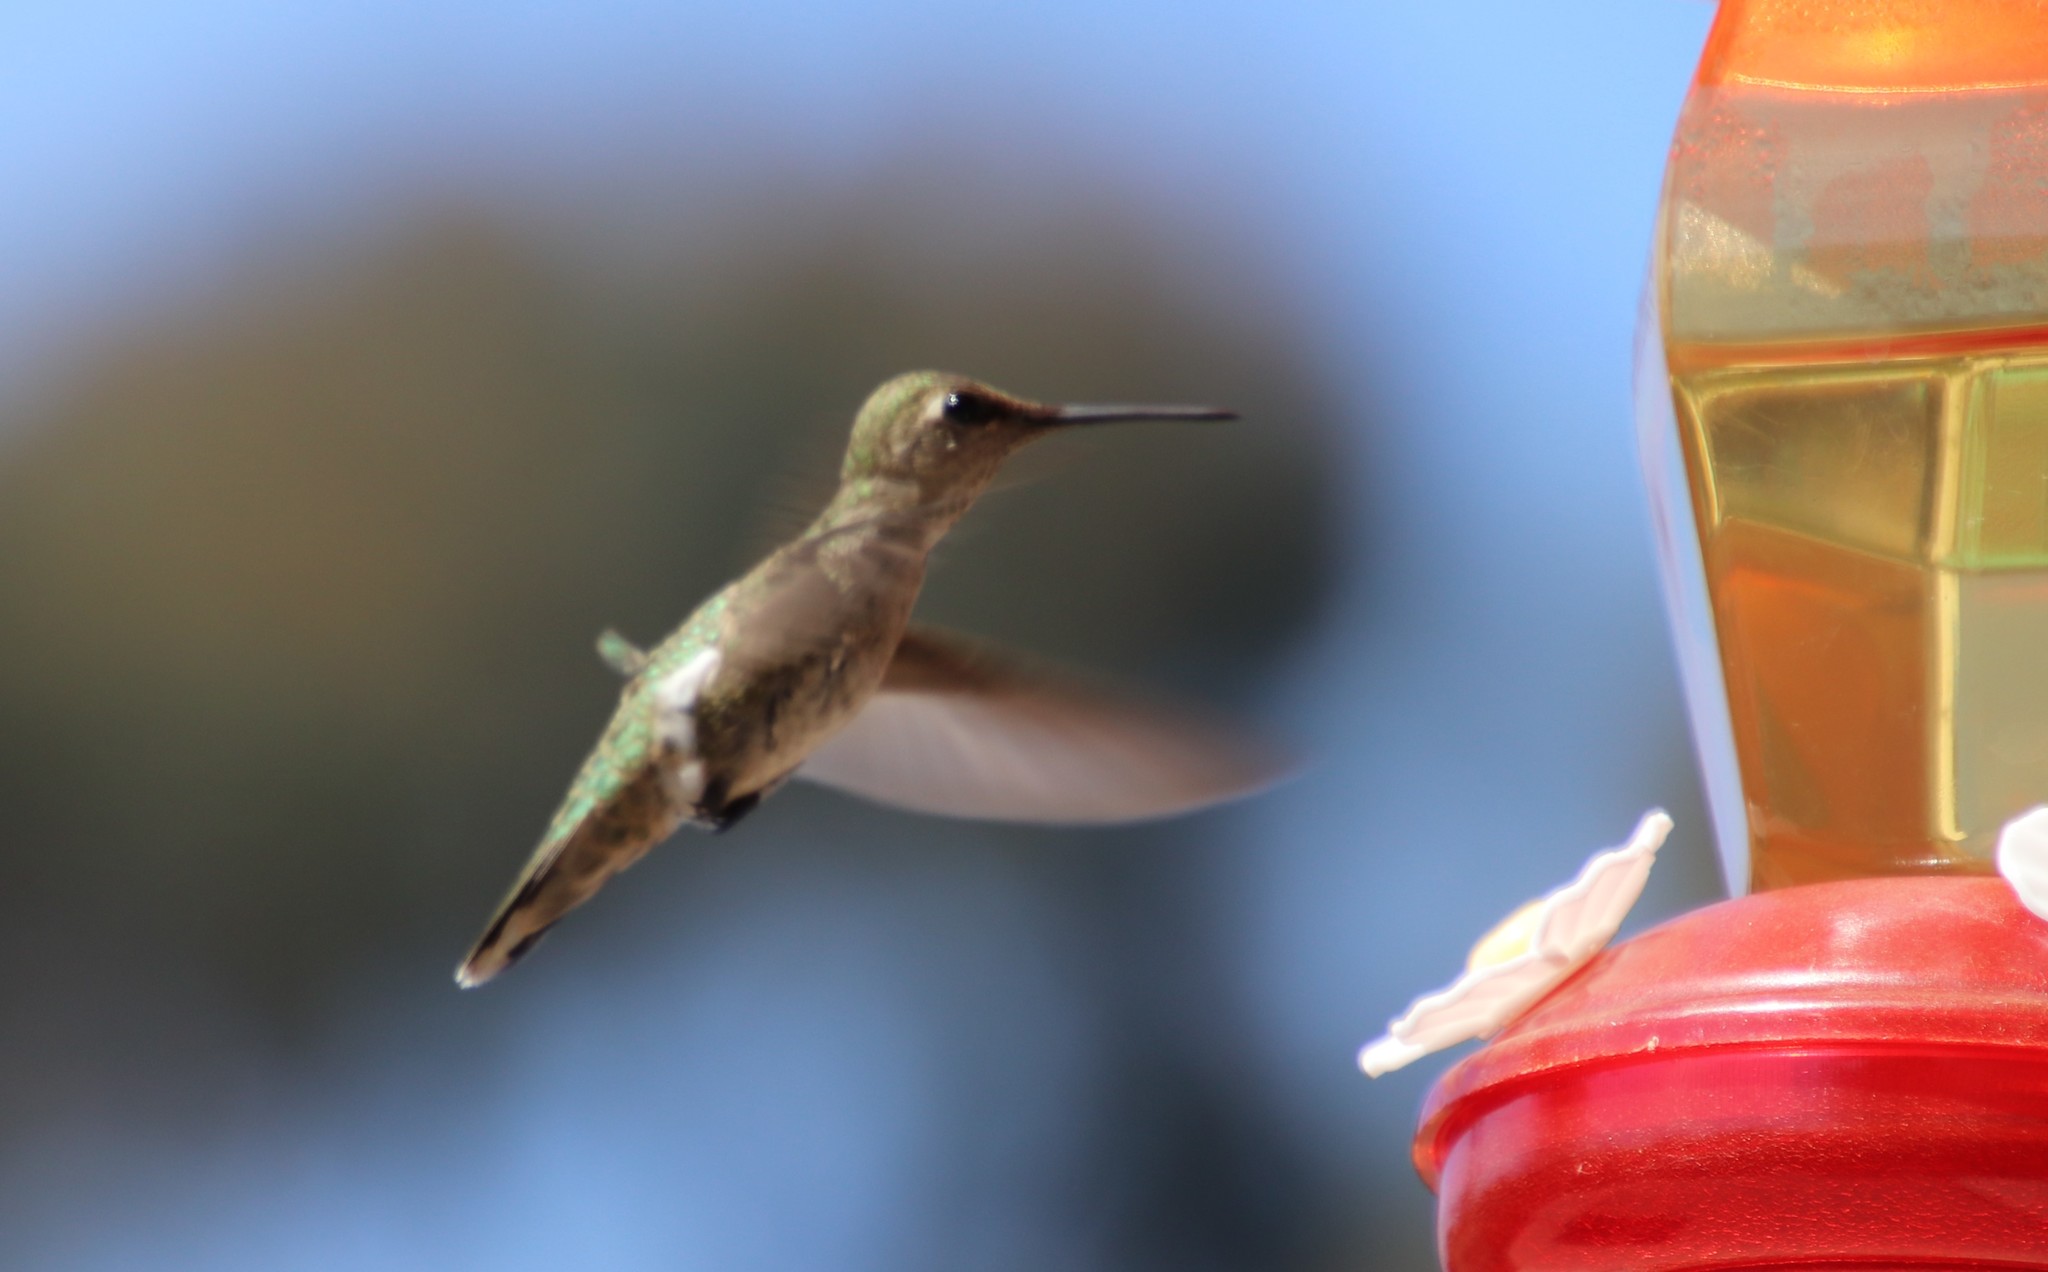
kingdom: Animalia
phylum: Chordata
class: Aves
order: Apodiformes
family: Trochilidae
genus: Calypte
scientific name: Calypte anna
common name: Anna's hummingbird
